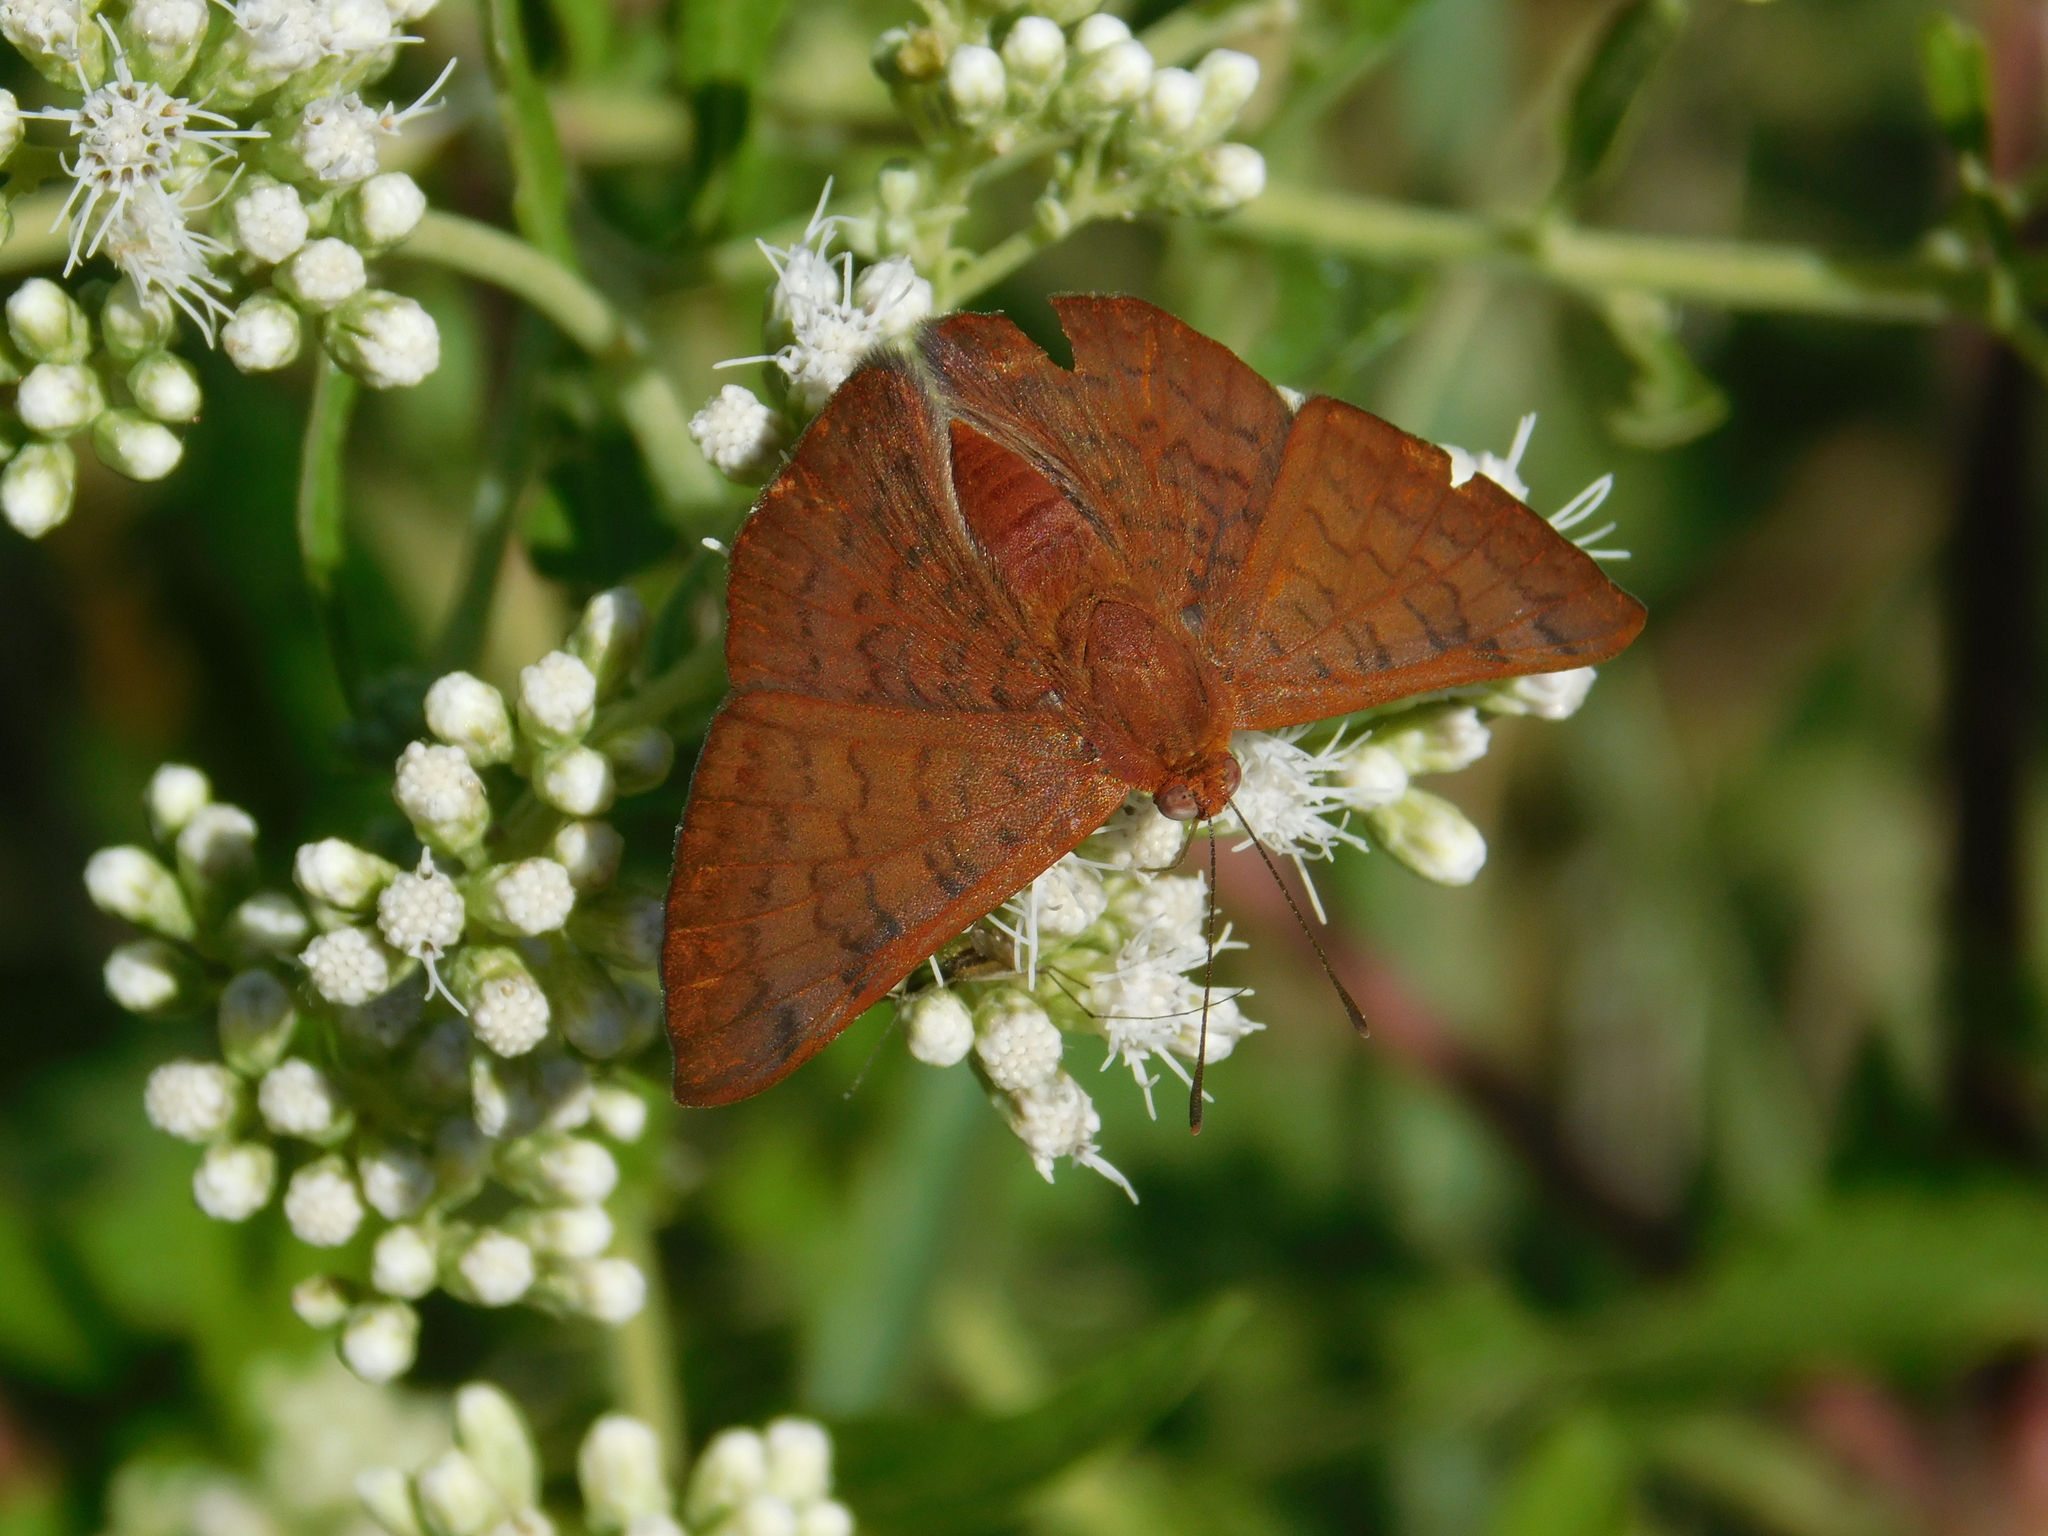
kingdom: Animalia
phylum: Arthropoda
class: Insecta
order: Lepidoptera
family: Lycaenidae
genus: Emesis
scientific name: Emesis russula
